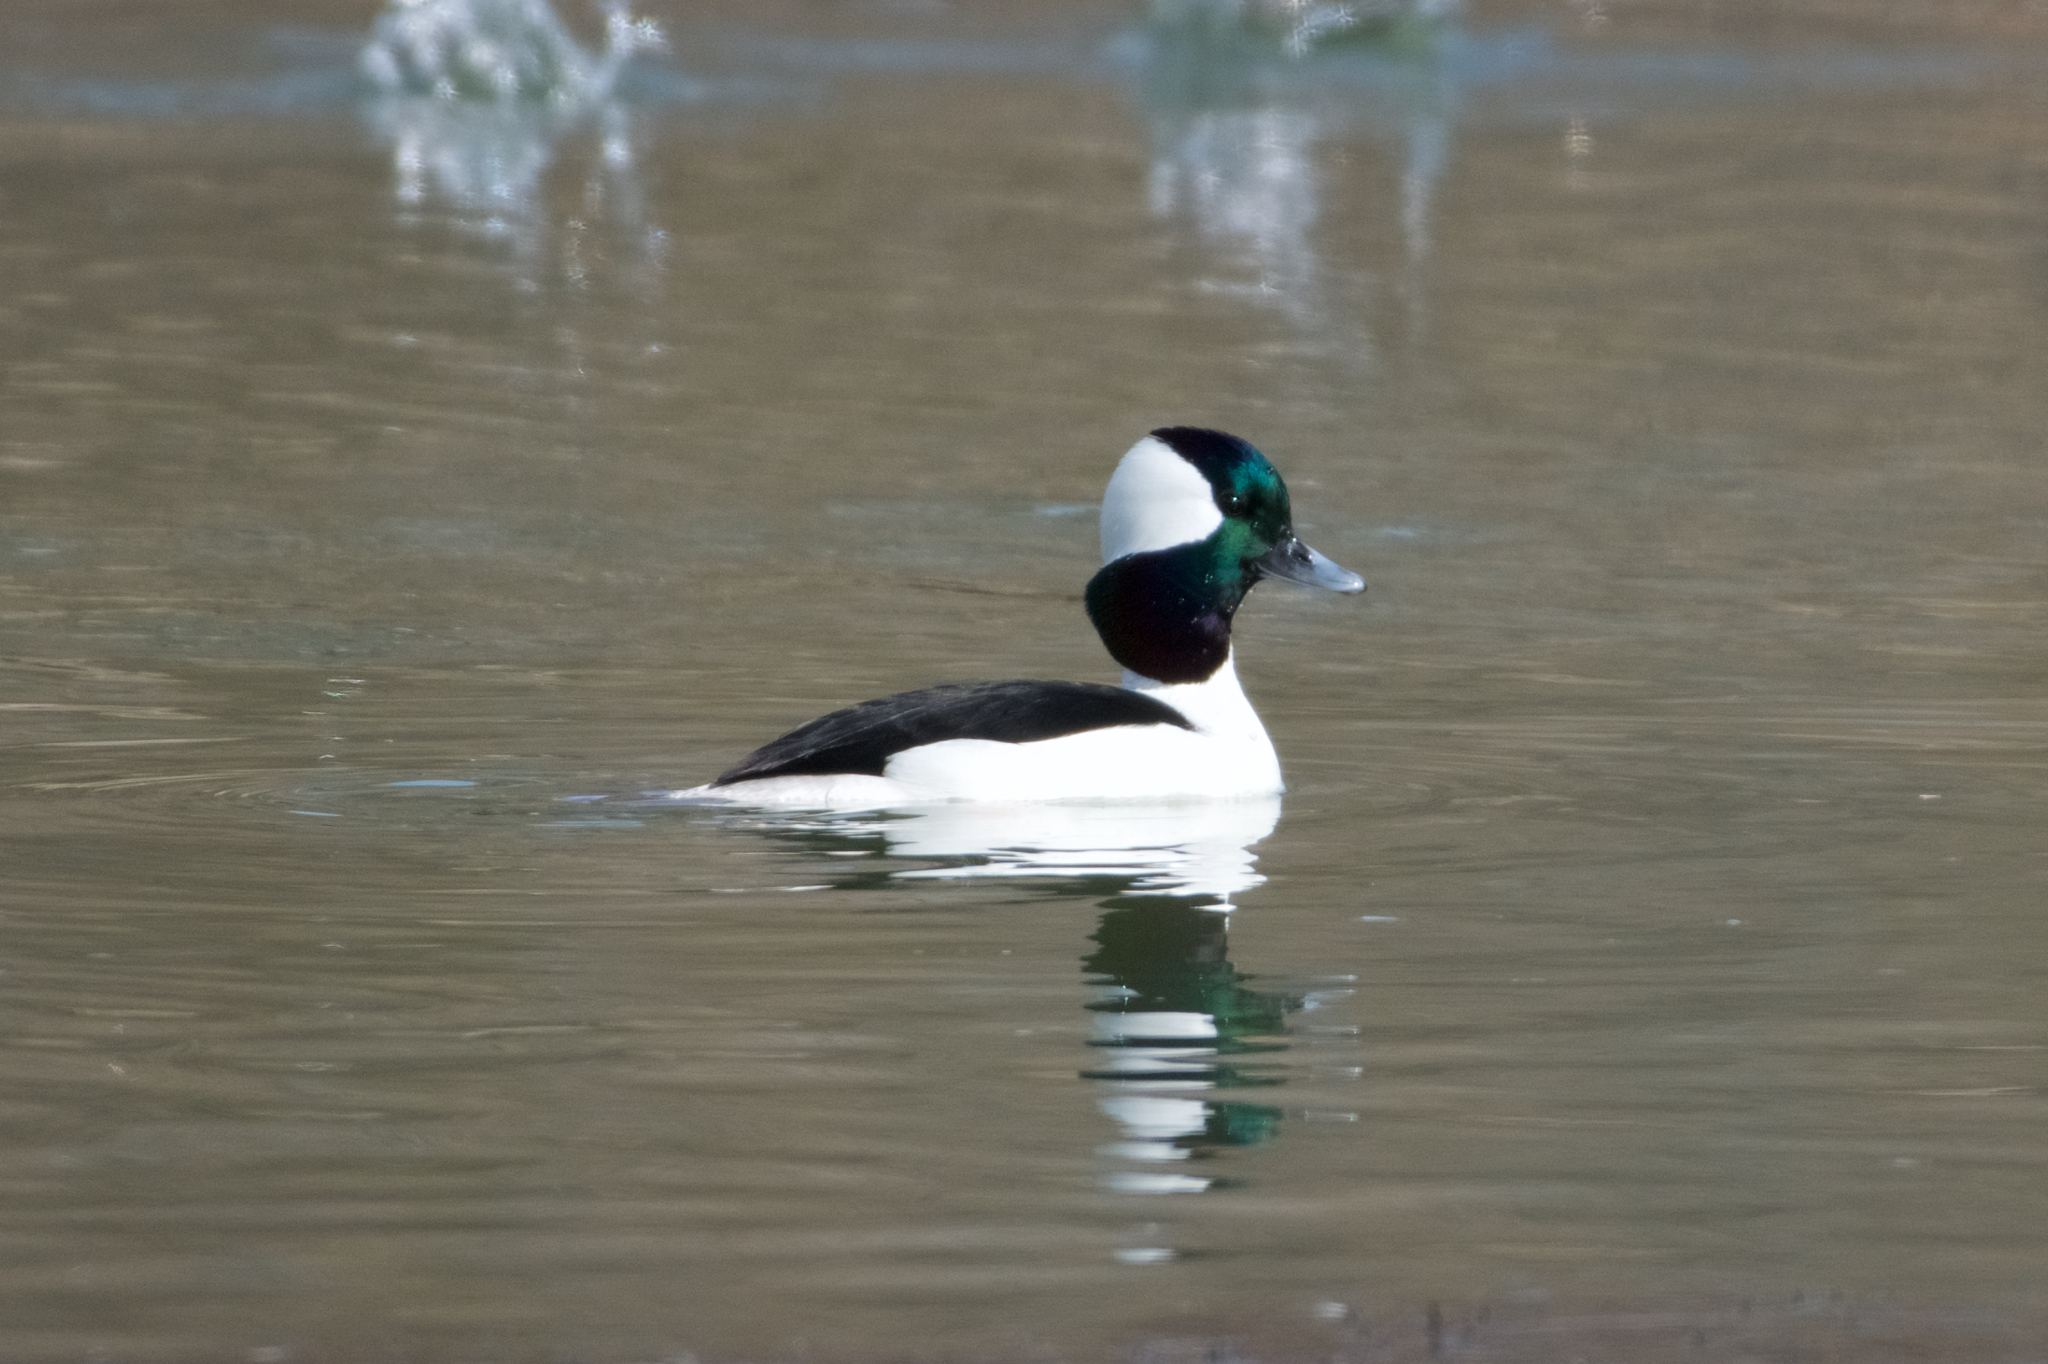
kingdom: Animalia
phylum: Chordata
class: Aves
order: Anseriformes
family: Anatidae
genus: Bucephala
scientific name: Bucephala albeola
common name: Bufflehead
